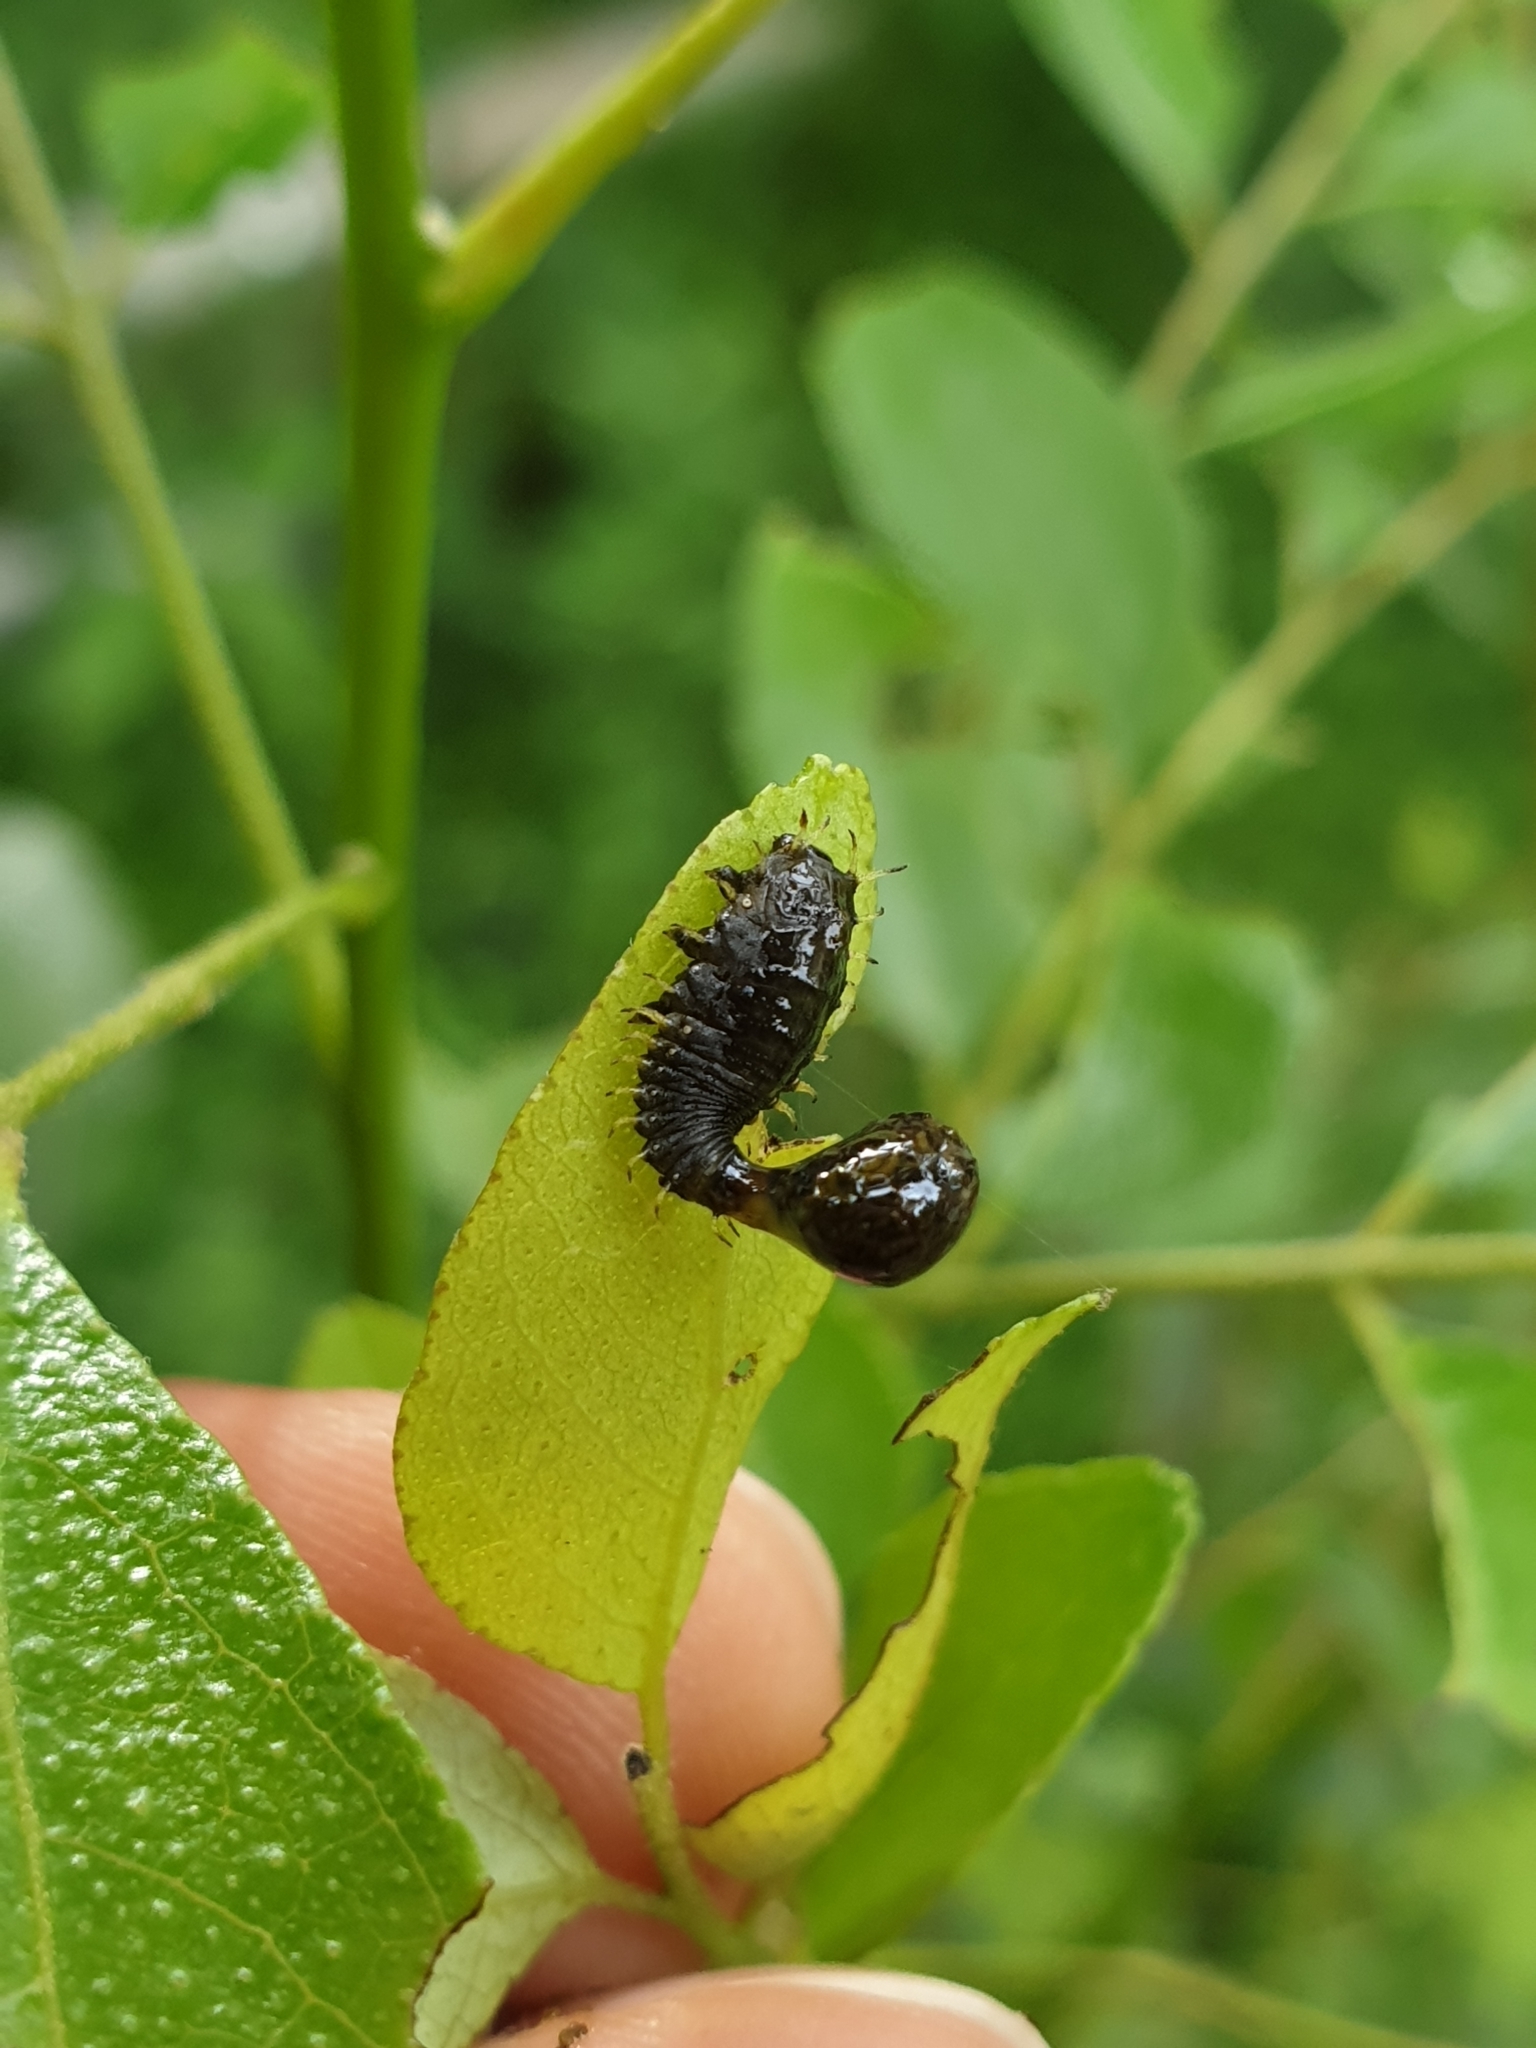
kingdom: Animalia
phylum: Arthropoda
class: Insecta
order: Coleoptera
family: Chrysomelidae
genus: Silana
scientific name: Silana farinosa
